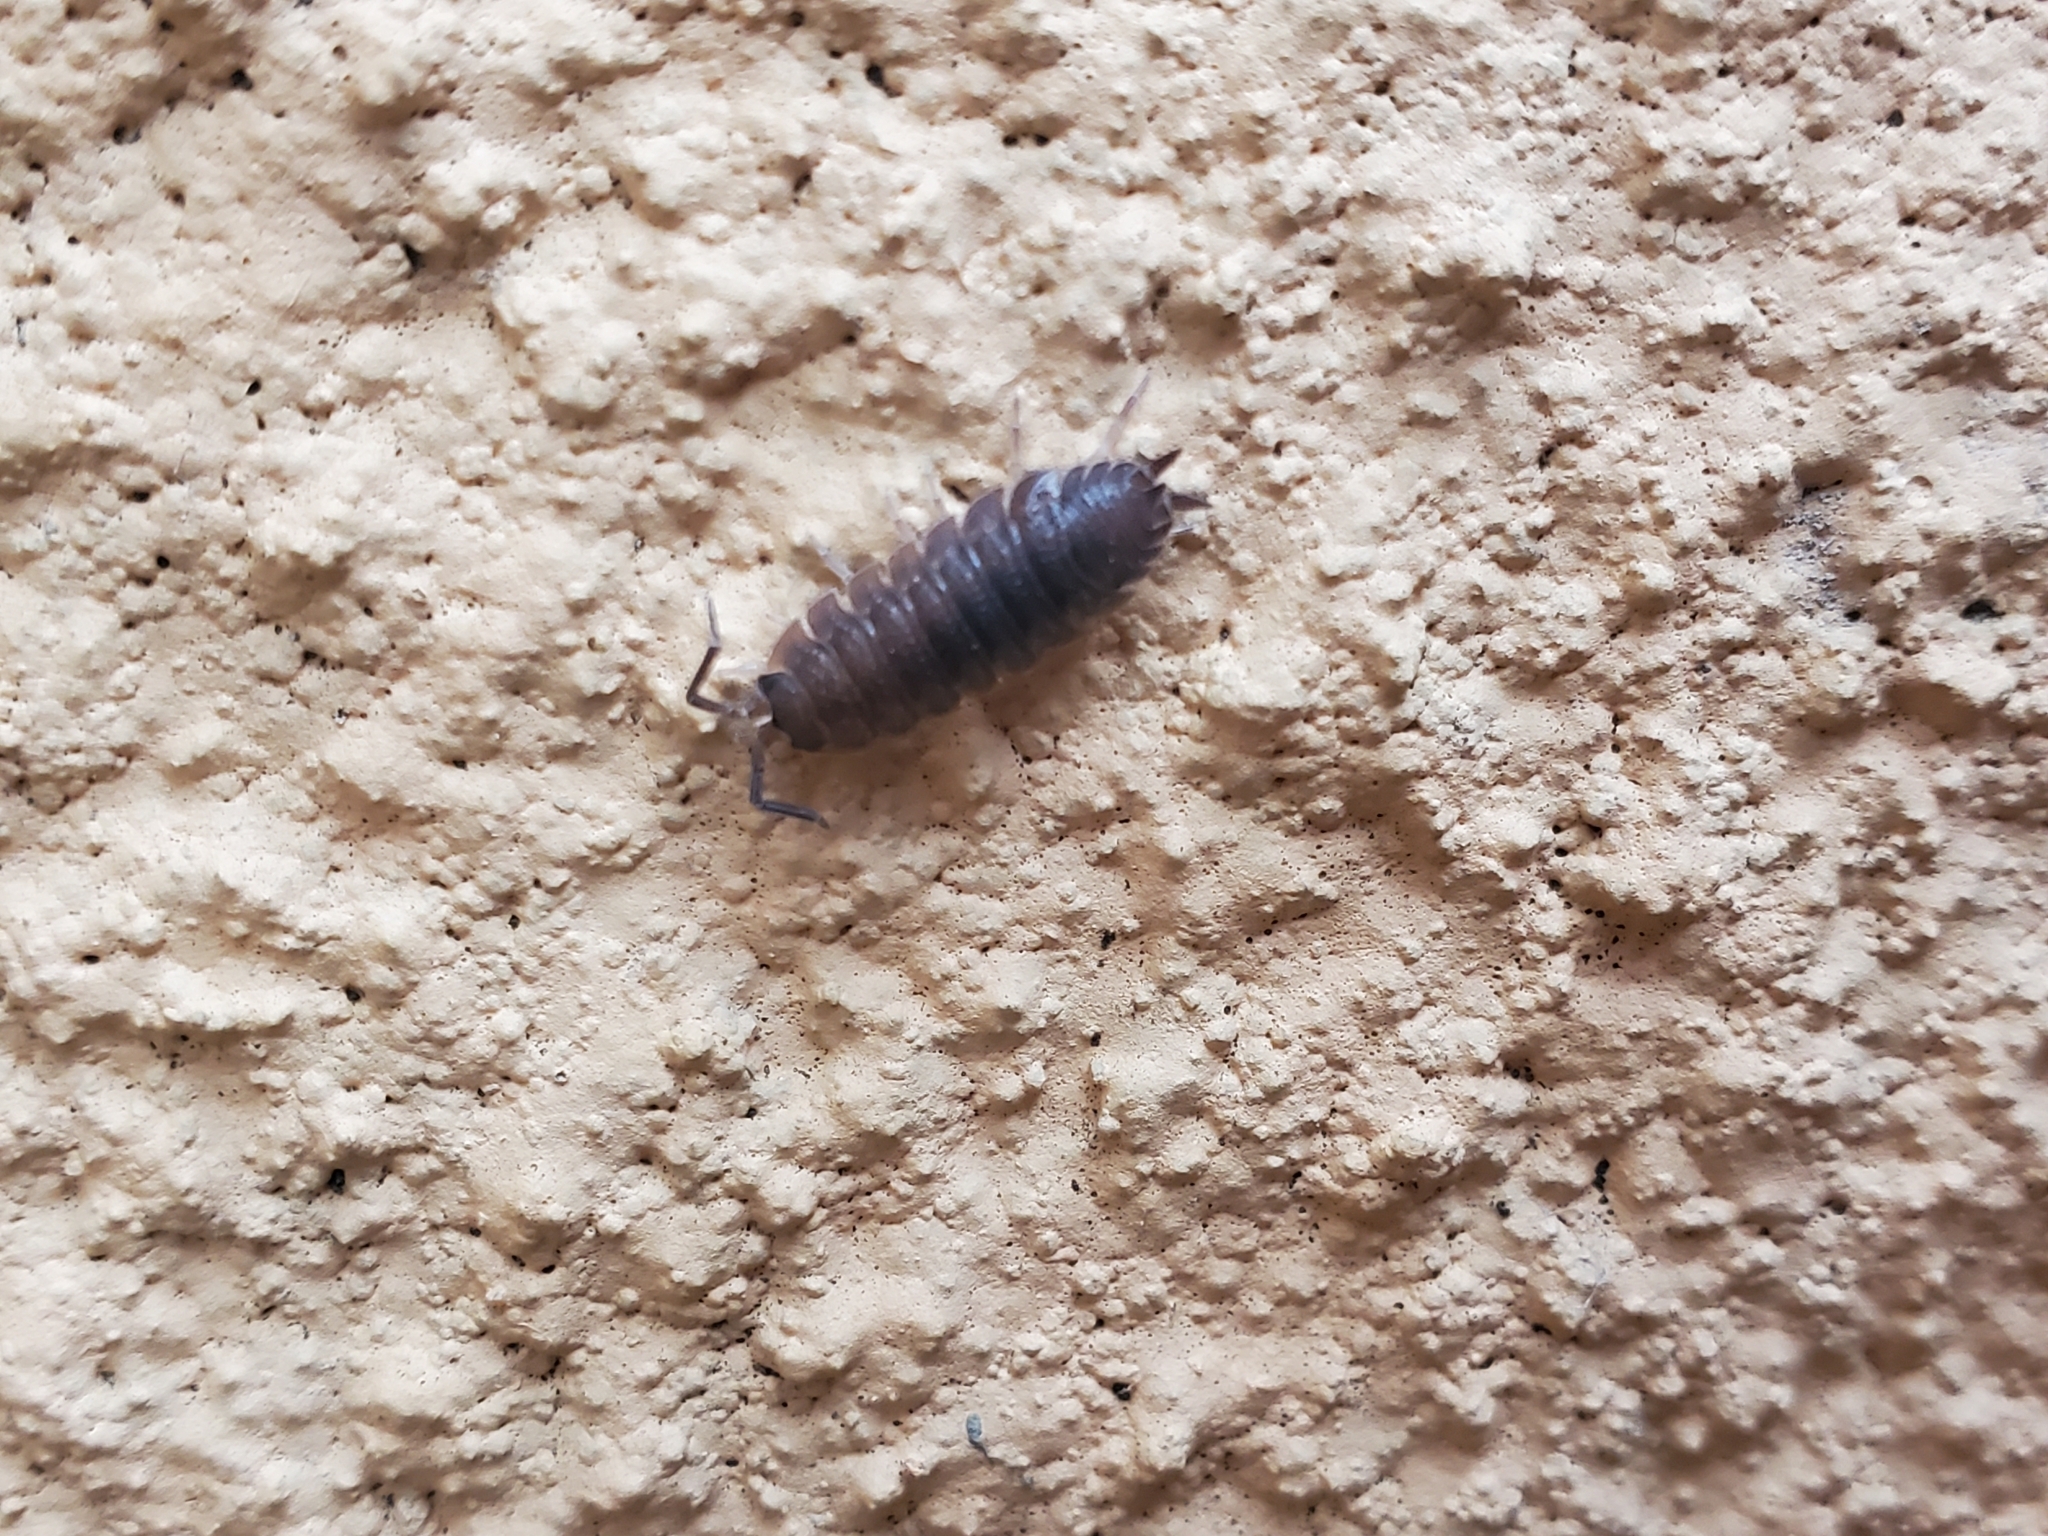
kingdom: Animalia
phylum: Arthropoda
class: Malacostraca
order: Isopoda
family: Porcellionidae
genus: Porcellio
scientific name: Porcellio scaber
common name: Common rough woodlouse
